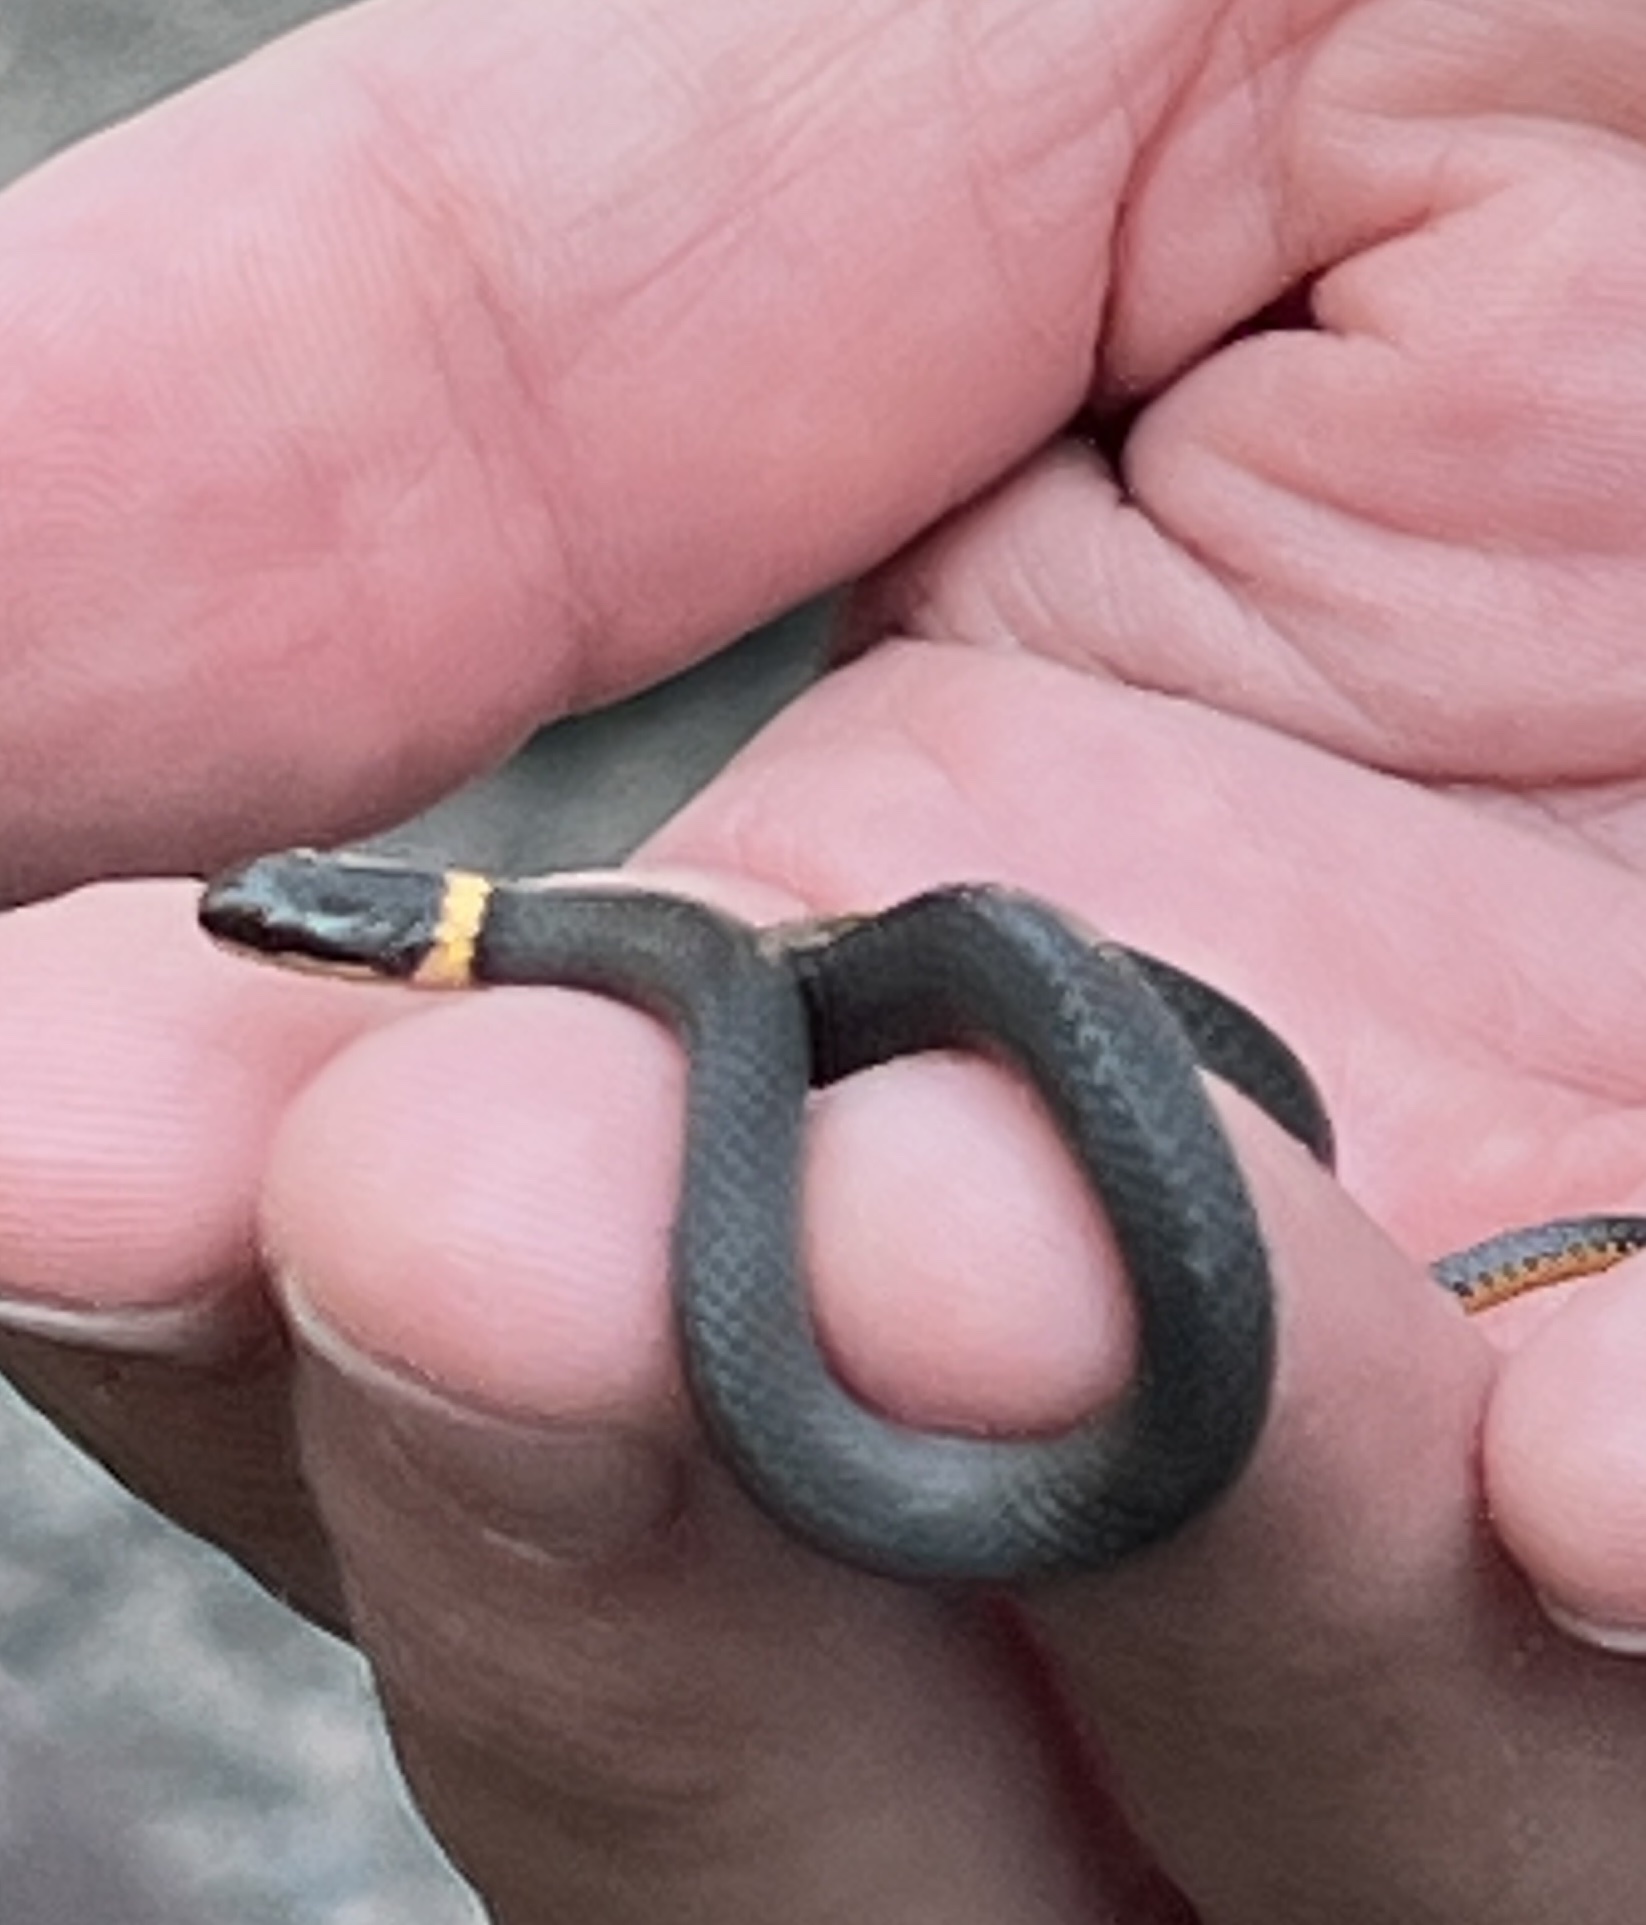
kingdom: Animalia
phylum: Chordata
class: Squamata
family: Colubridae
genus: Diadophis
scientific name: Diadophis punctatus
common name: Ringneck snake
